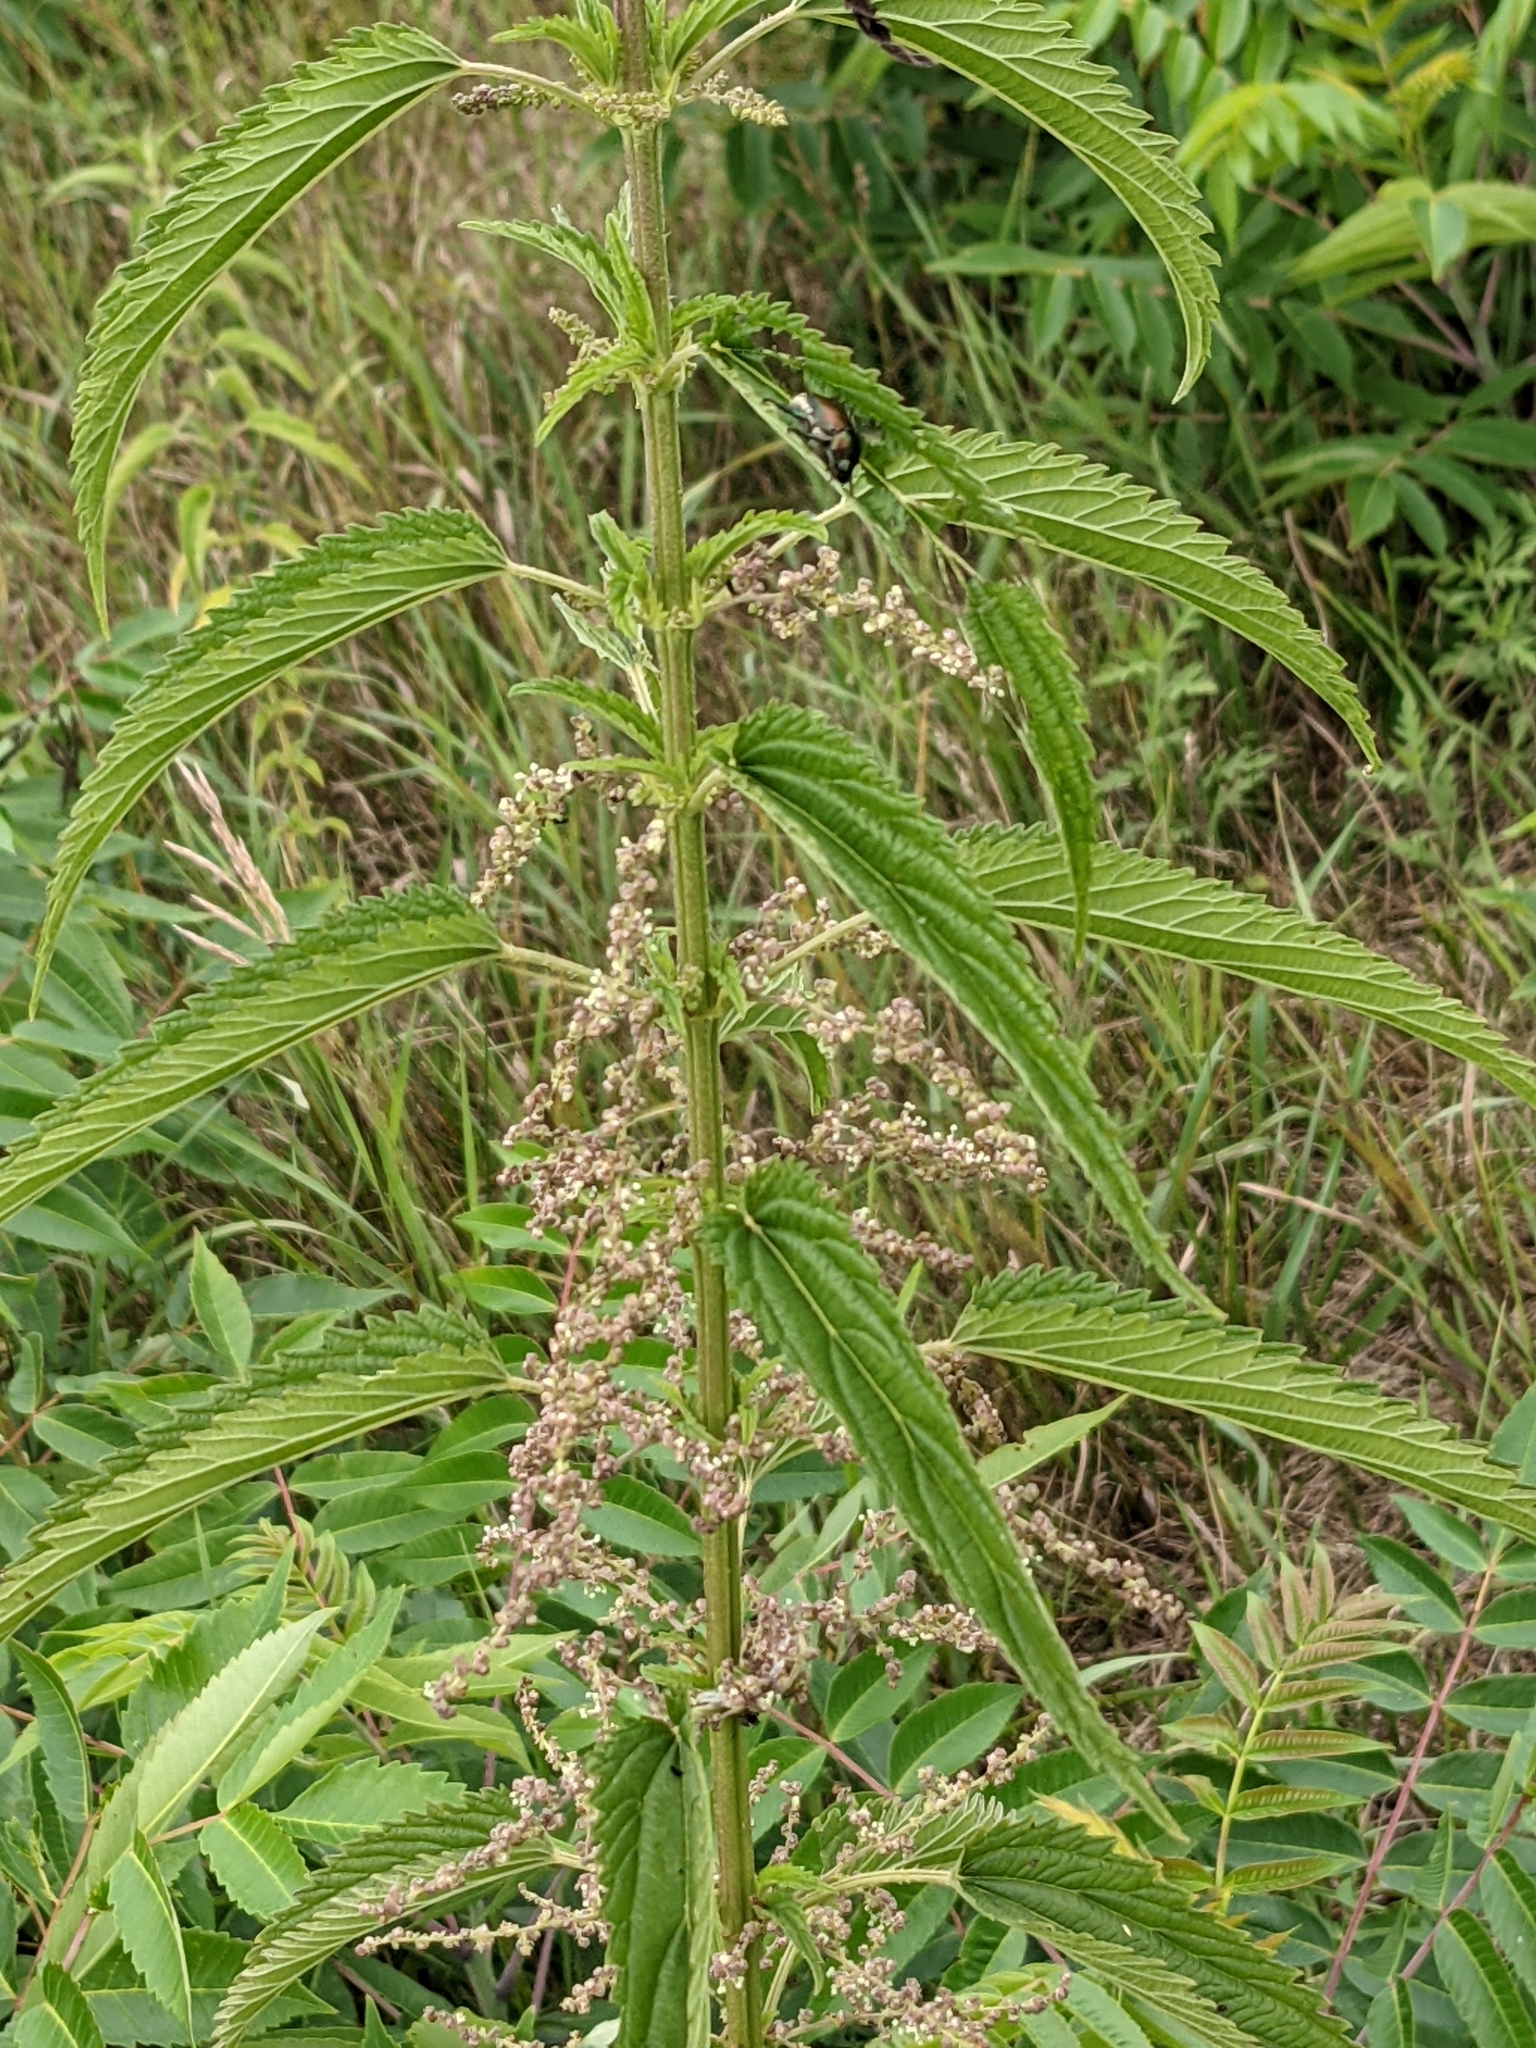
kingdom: Plantae
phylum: Tracheophyta
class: Magnoliopsida
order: Rosales
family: Urticaceae
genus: Urtica
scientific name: Urtica dioica
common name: Common nettle
